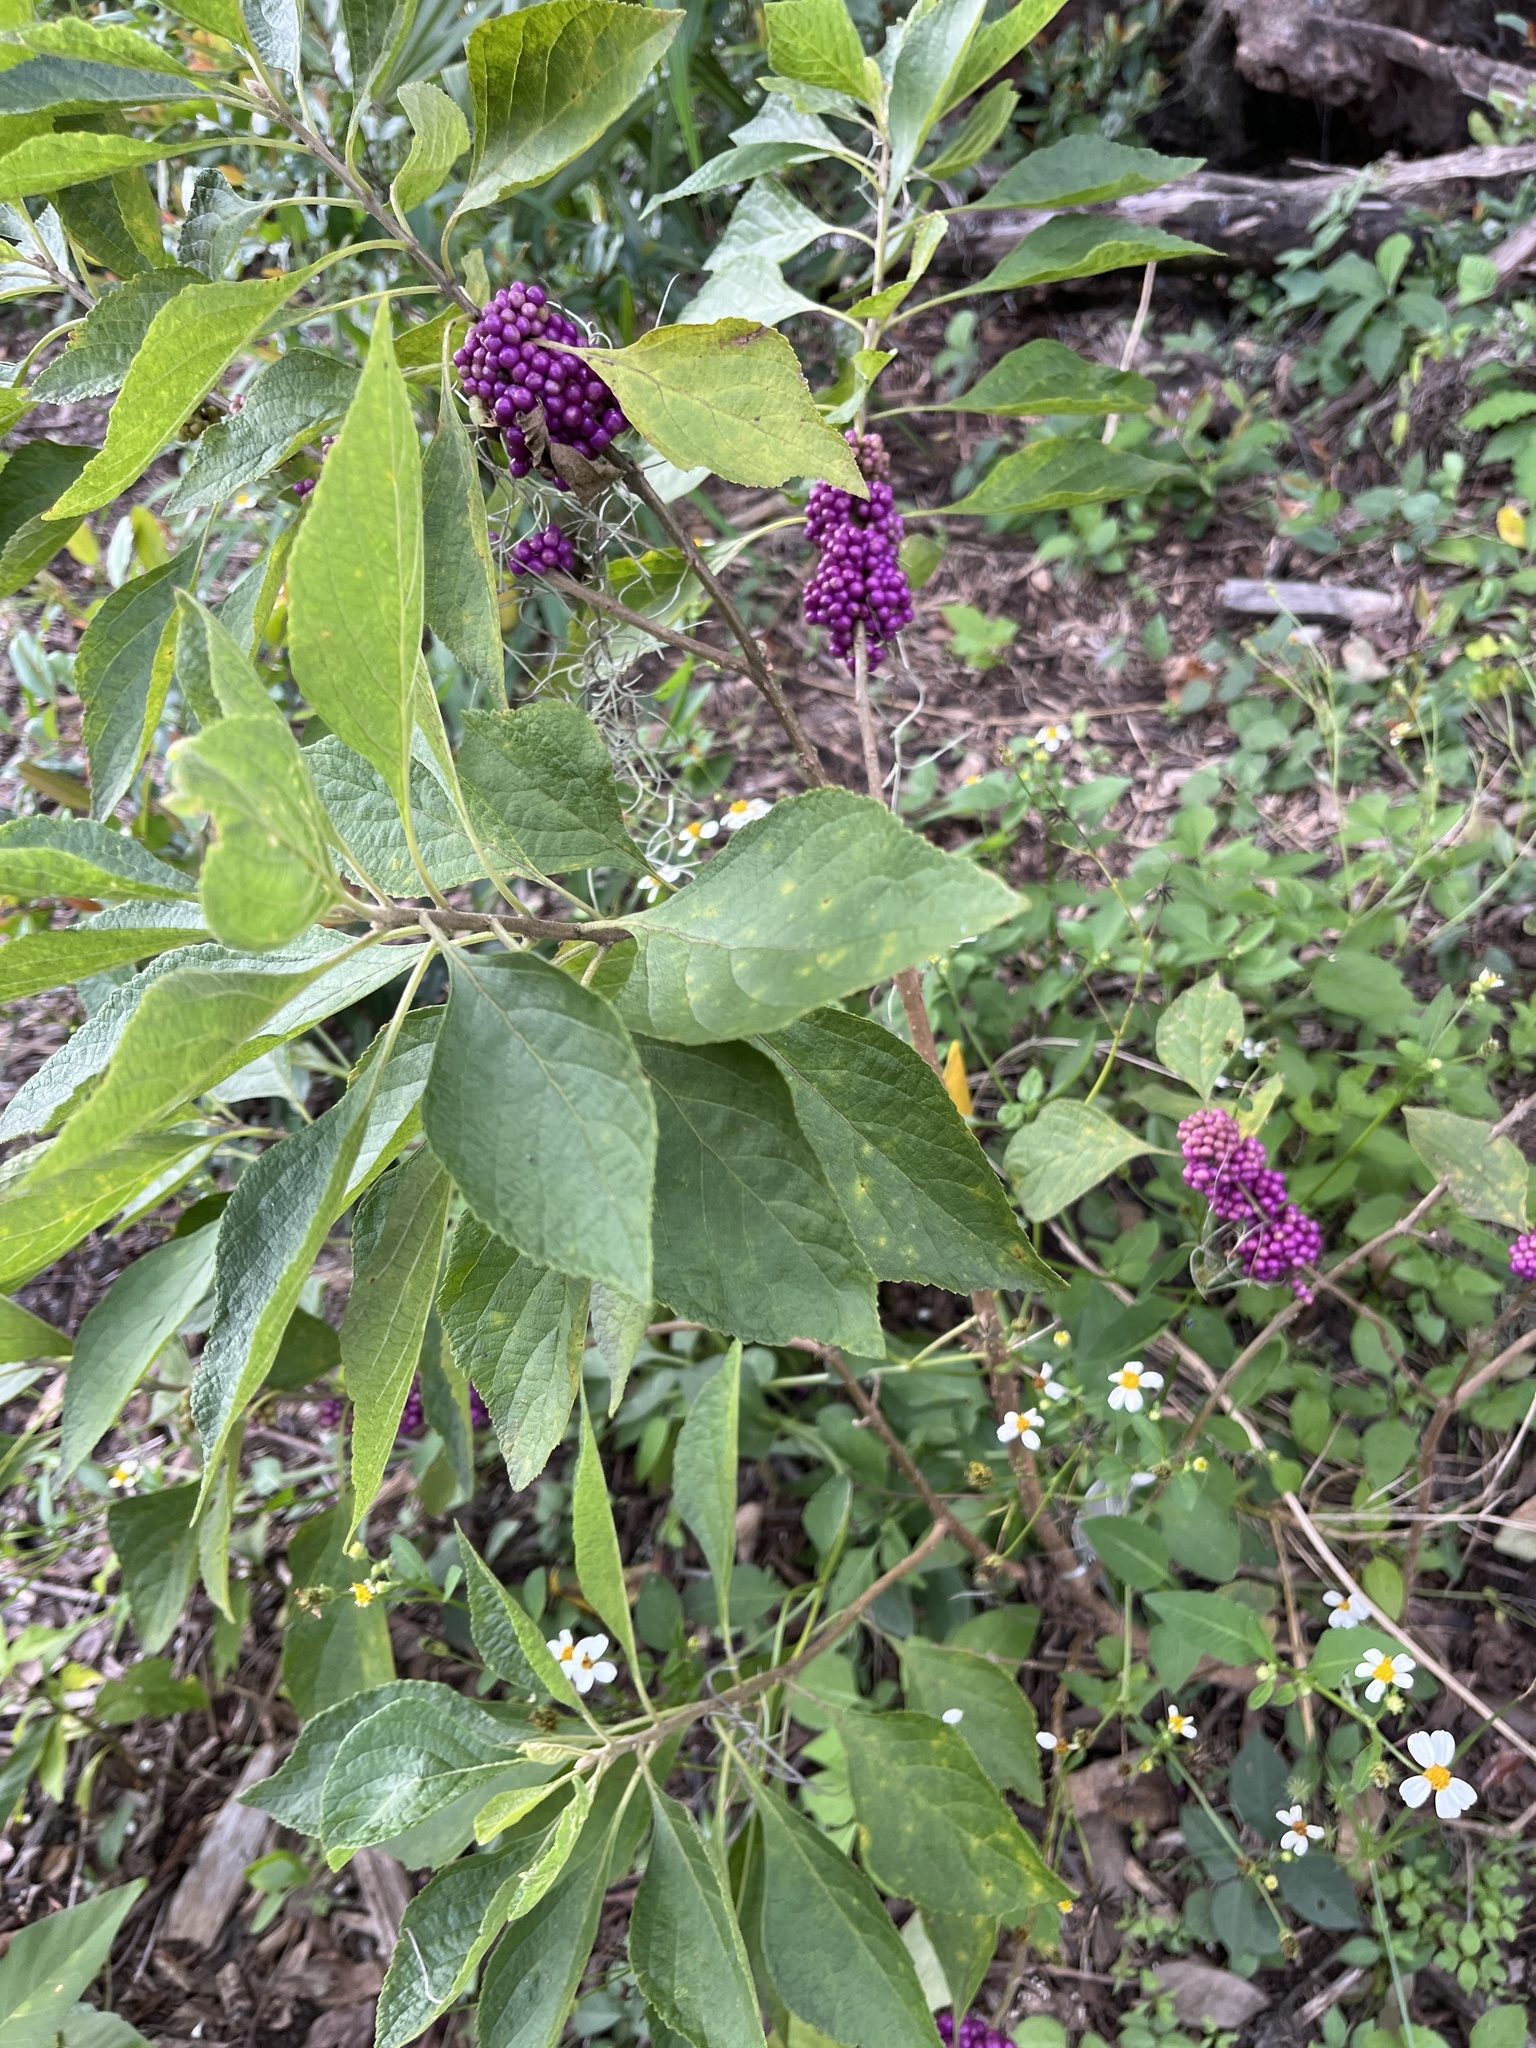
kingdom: Plantae
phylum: Tracheophyta
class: Magnoliopsida
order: Lamiales
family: Lamiaceae
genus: Callicarpa
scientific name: Callicarpa americana
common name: American beautyberry
